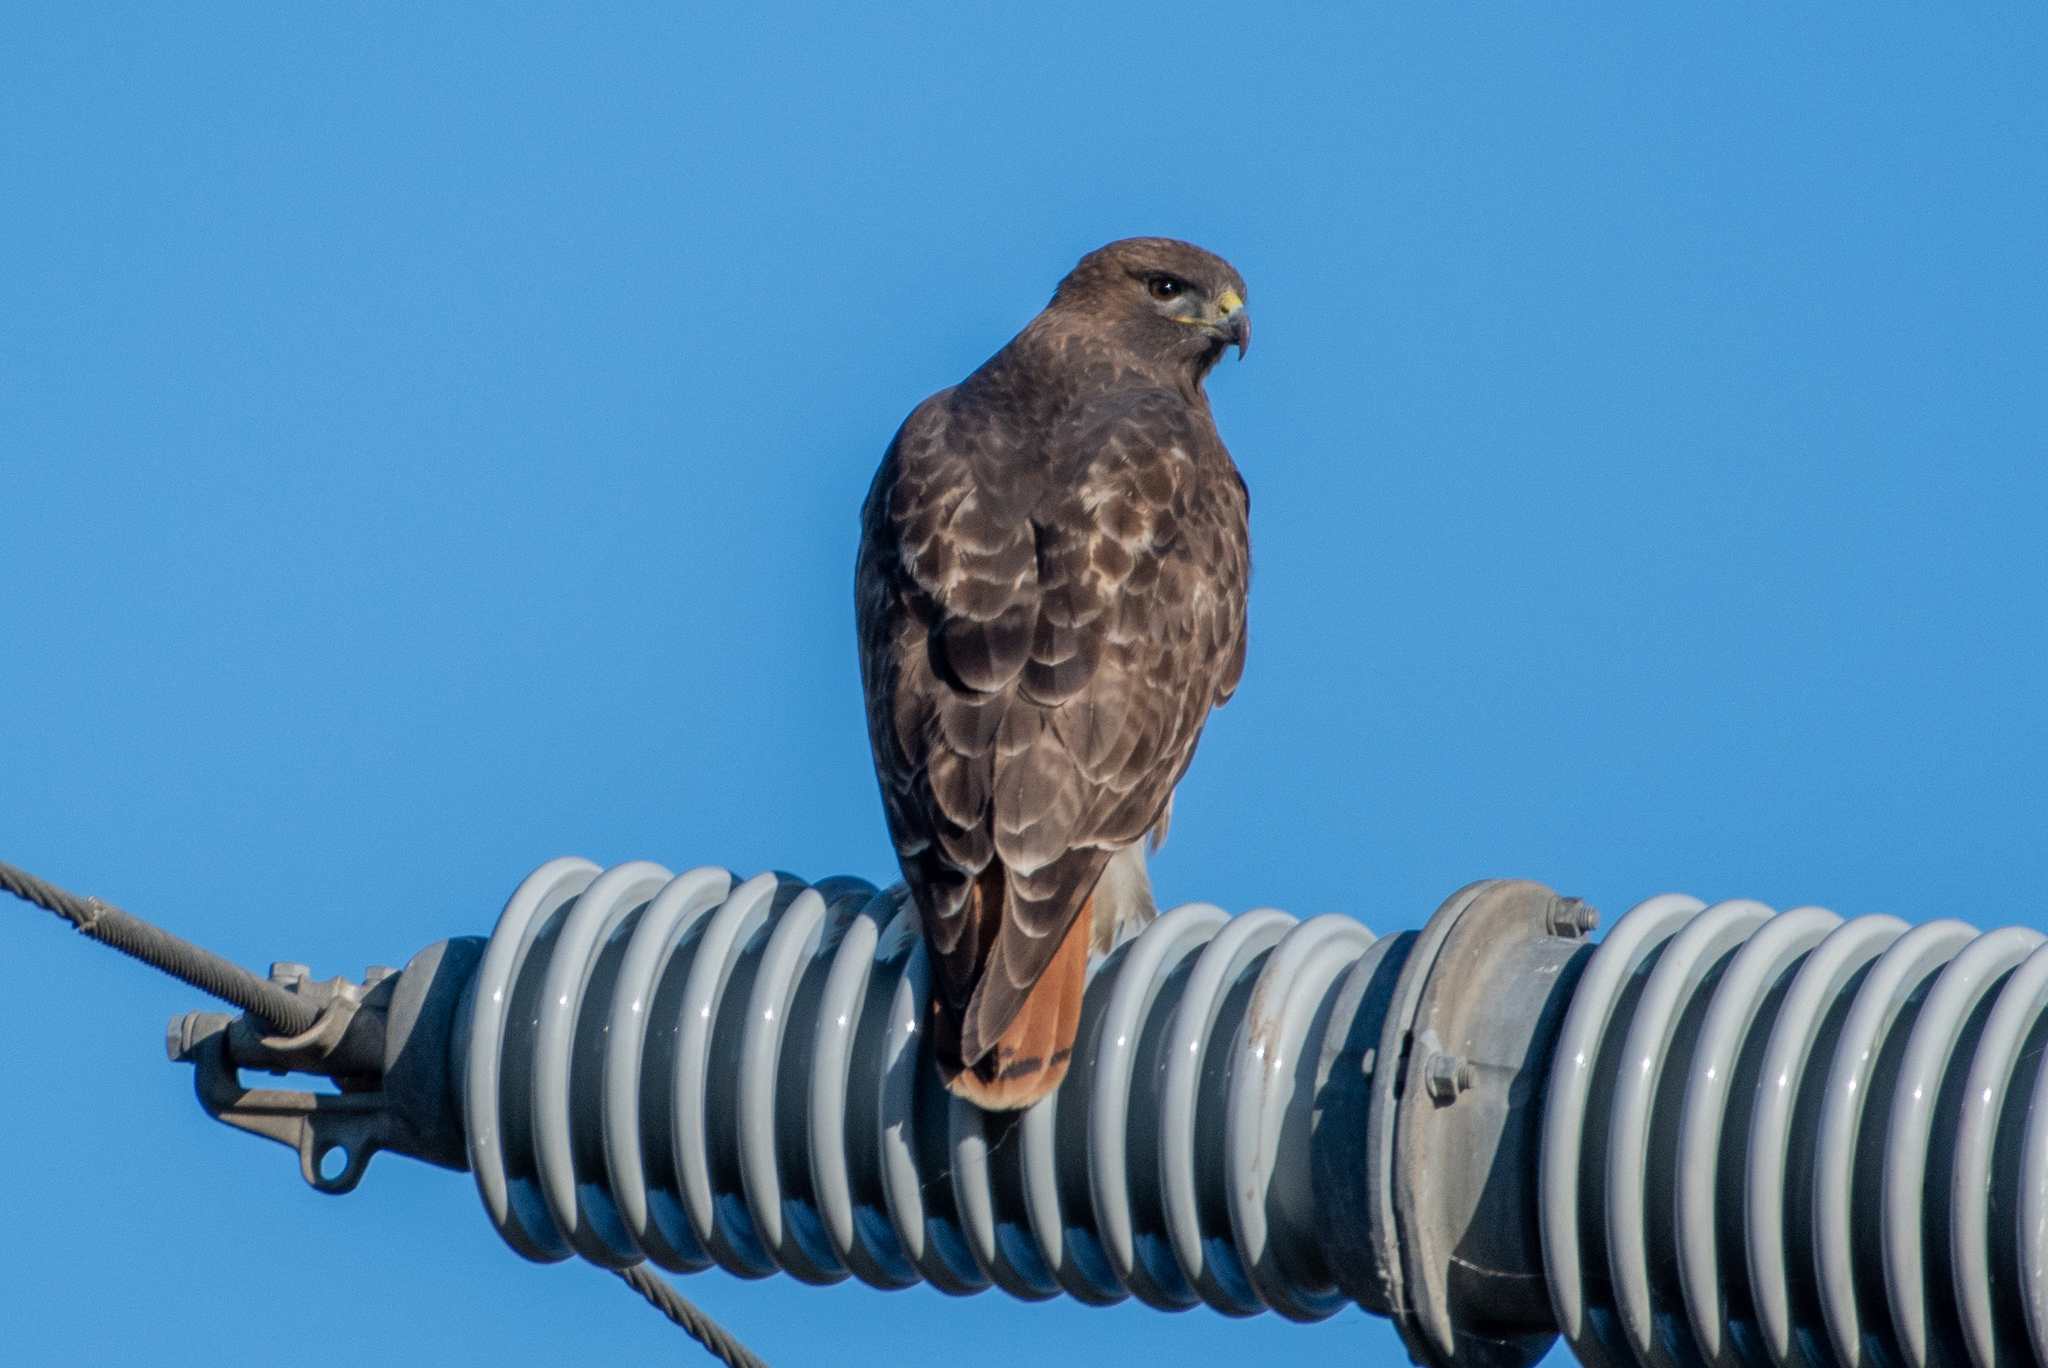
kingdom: Animalia
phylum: Chordata
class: Aves
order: Accipitriformes
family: Accipitridae
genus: Buteo
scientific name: Buteo jamaicensis
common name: Red-tailed hawk
